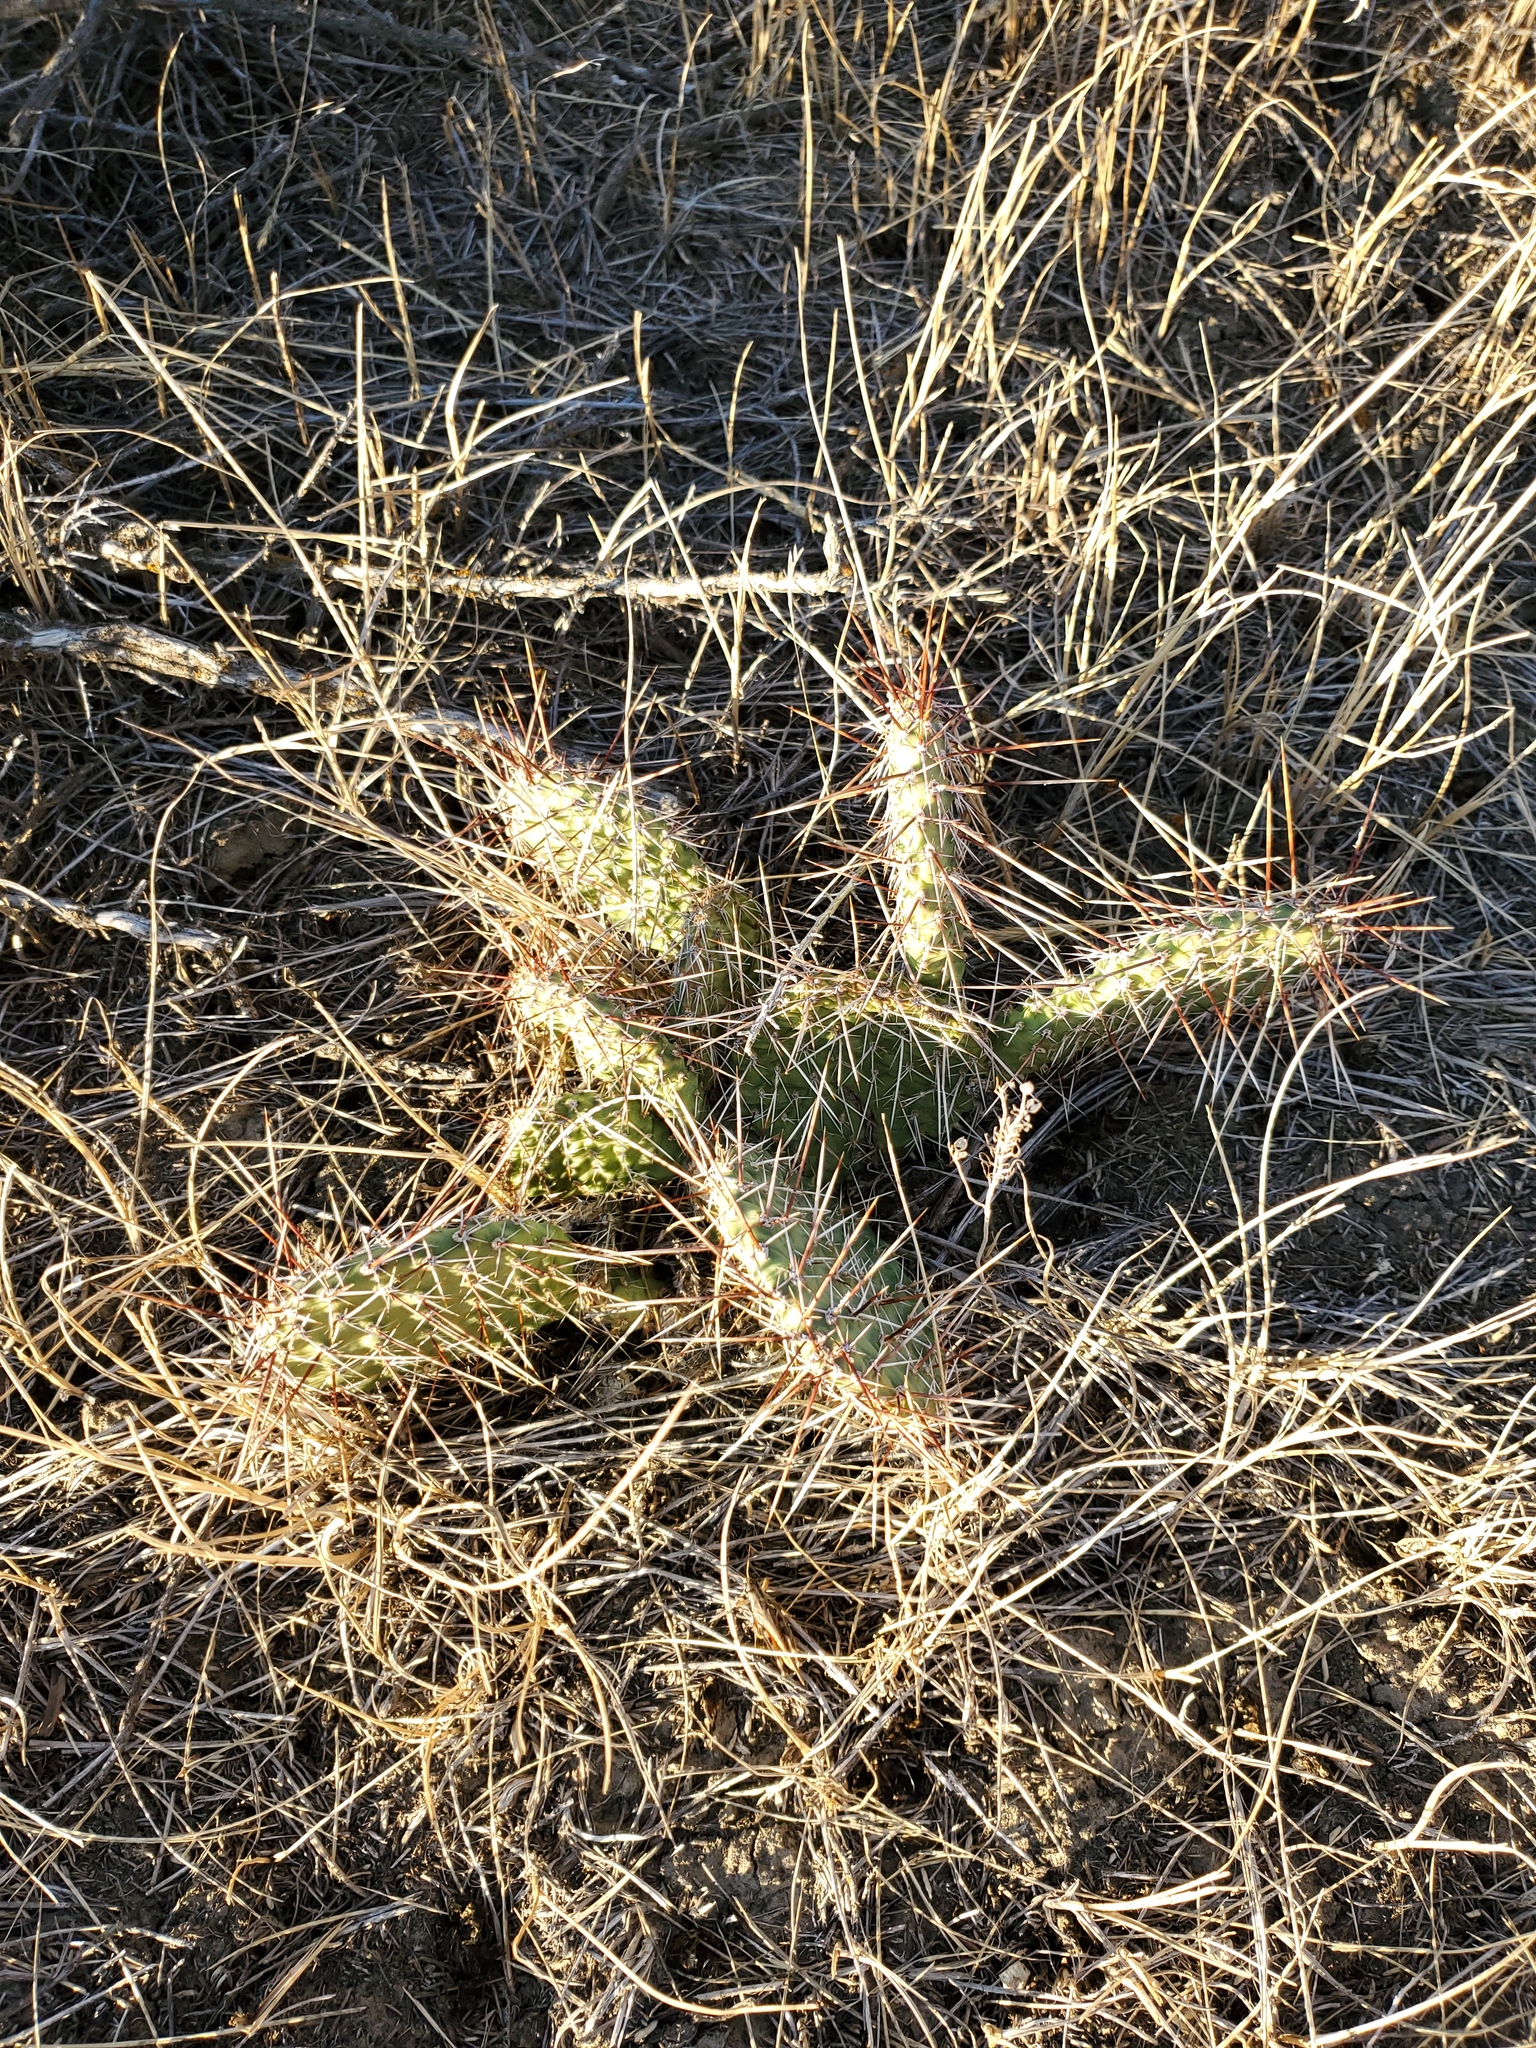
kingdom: Plantae
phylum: Tracheophyta
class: Magnoliopsida
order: Caryophyllales
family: Cactaceae
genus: Opuntia
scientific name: Opuntia polyacantha
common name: Plains prickly-pear
